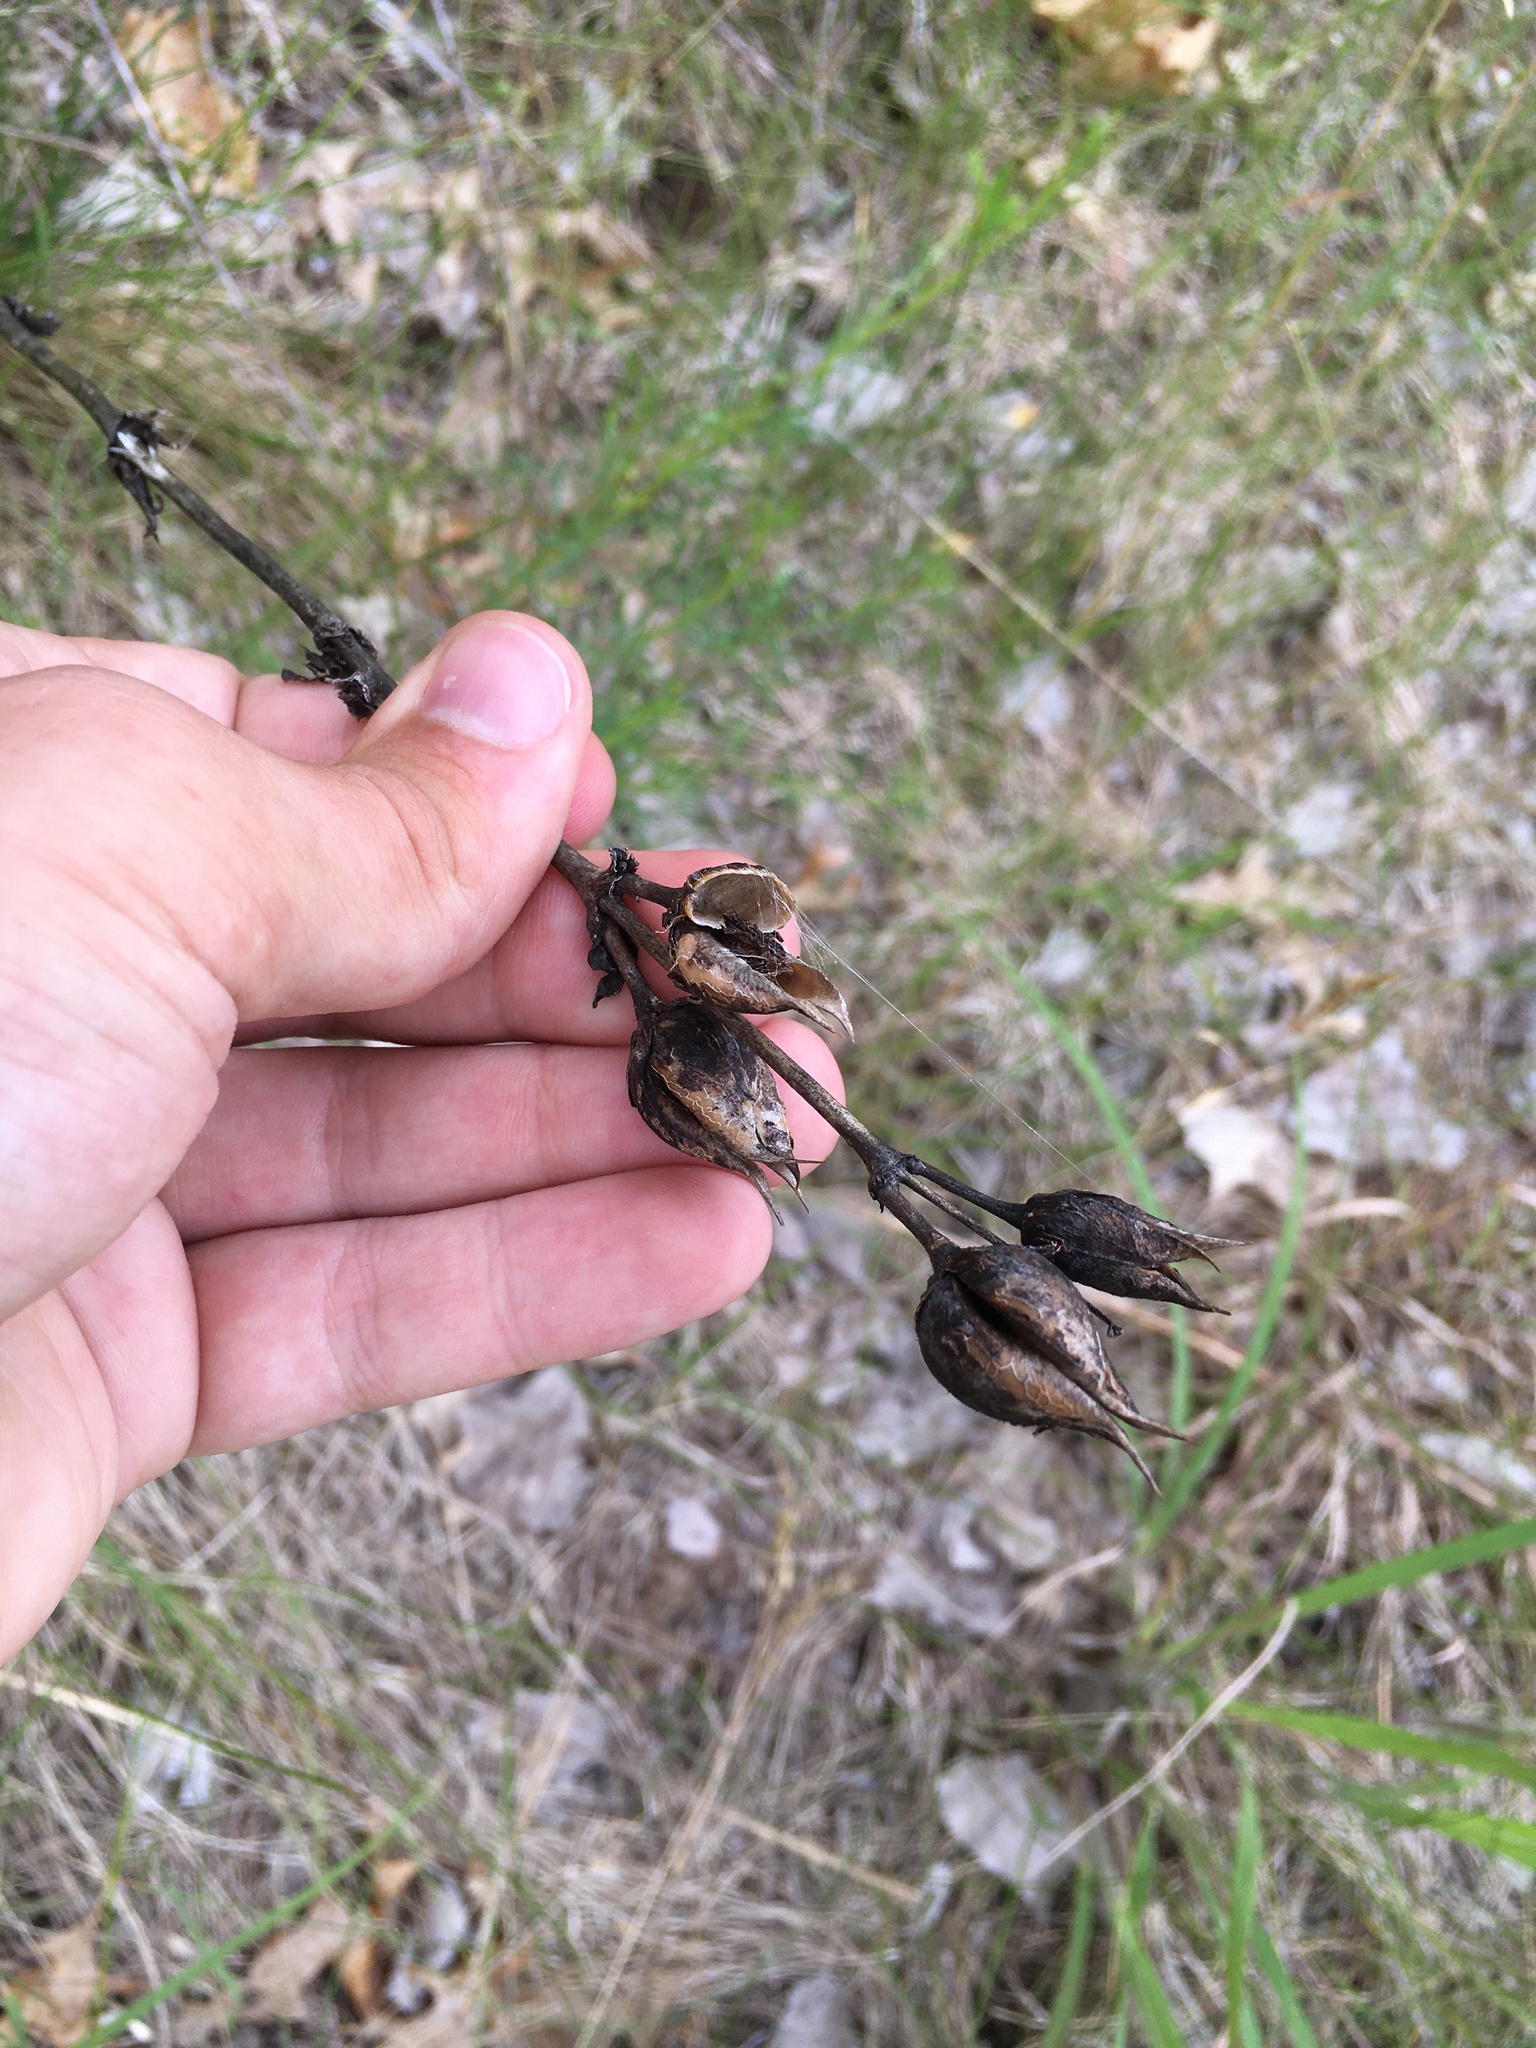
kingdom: Plantae
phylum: Tracheophyta
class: Magnoliopsida
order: Lamiales
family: Plantaginaceae
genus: Penstemon
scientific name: Penstemon
